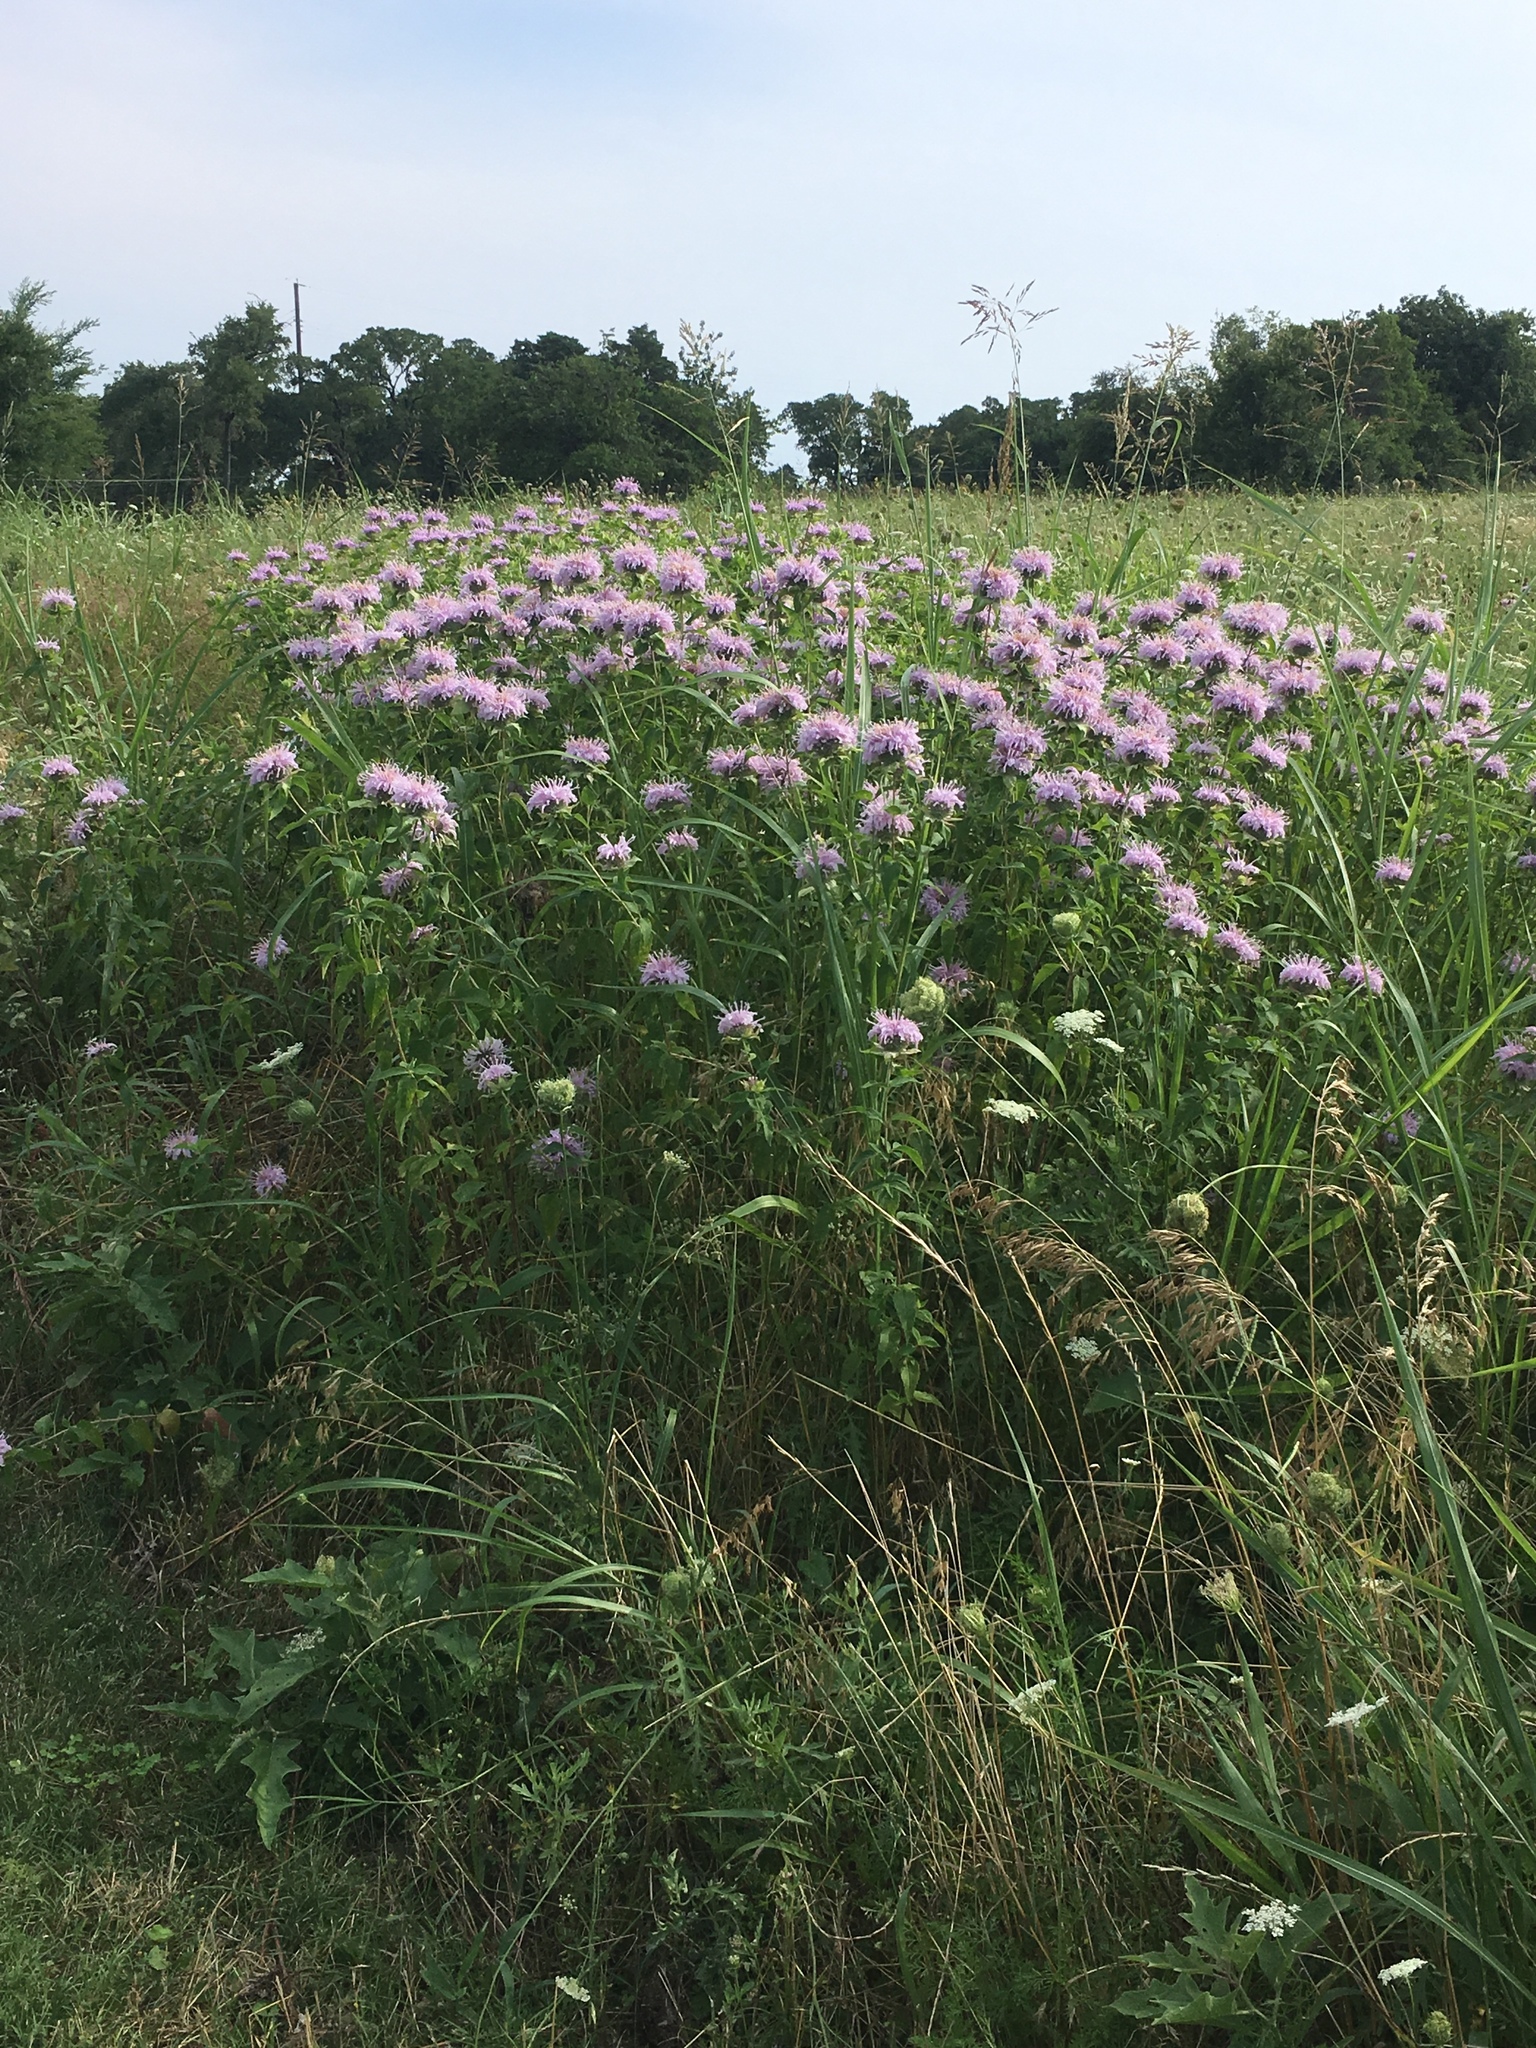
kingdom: Plantae
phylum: Tracheophyta
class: Magnoliopsida
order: Lamiales
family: Lamiaceae
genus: Monarda
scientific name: Monarda fistulosa
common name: Purple beebalm
